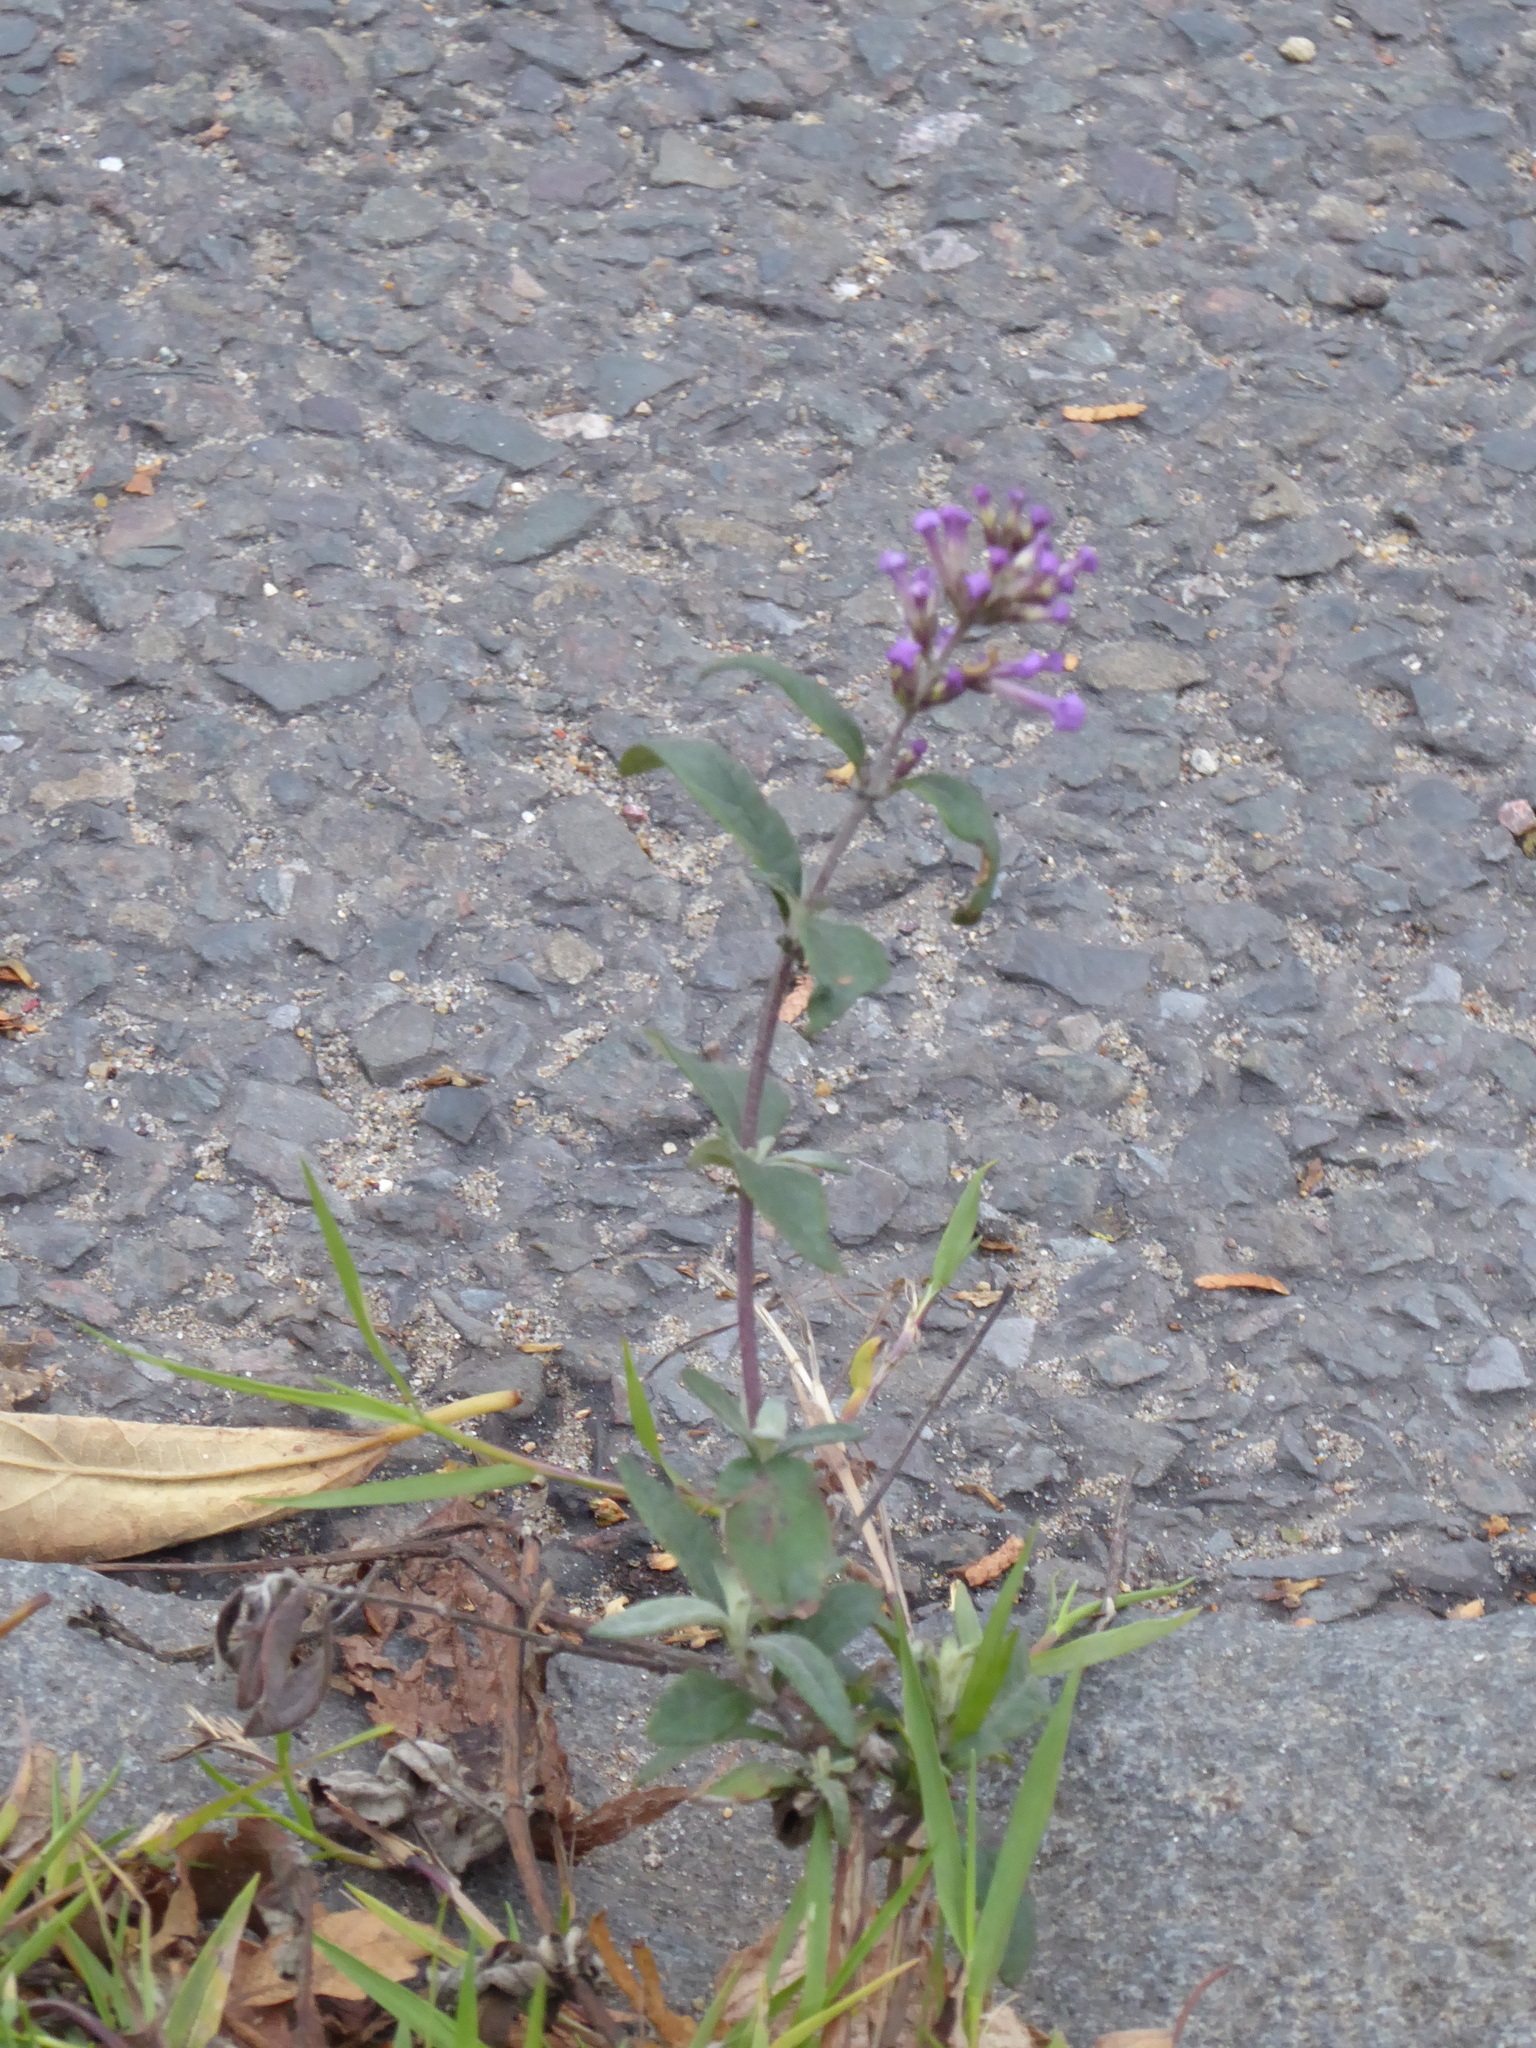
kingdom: Plantae
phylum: Tracheophyta
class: Magnoliopsida
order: Lamiales
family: Scrophulariaceae
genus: Buddleja
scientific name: Buddleja davidii
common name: Butterfly-bush
